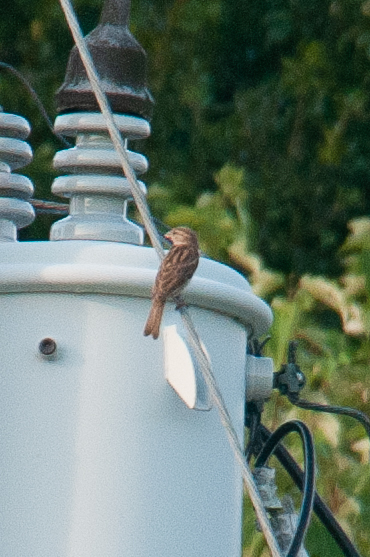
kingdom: Animalia
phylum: Chordata
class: Aves
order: Passeriformes
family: Passeridae
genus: Passer
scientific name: Passer domesticus
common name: House sparrow
